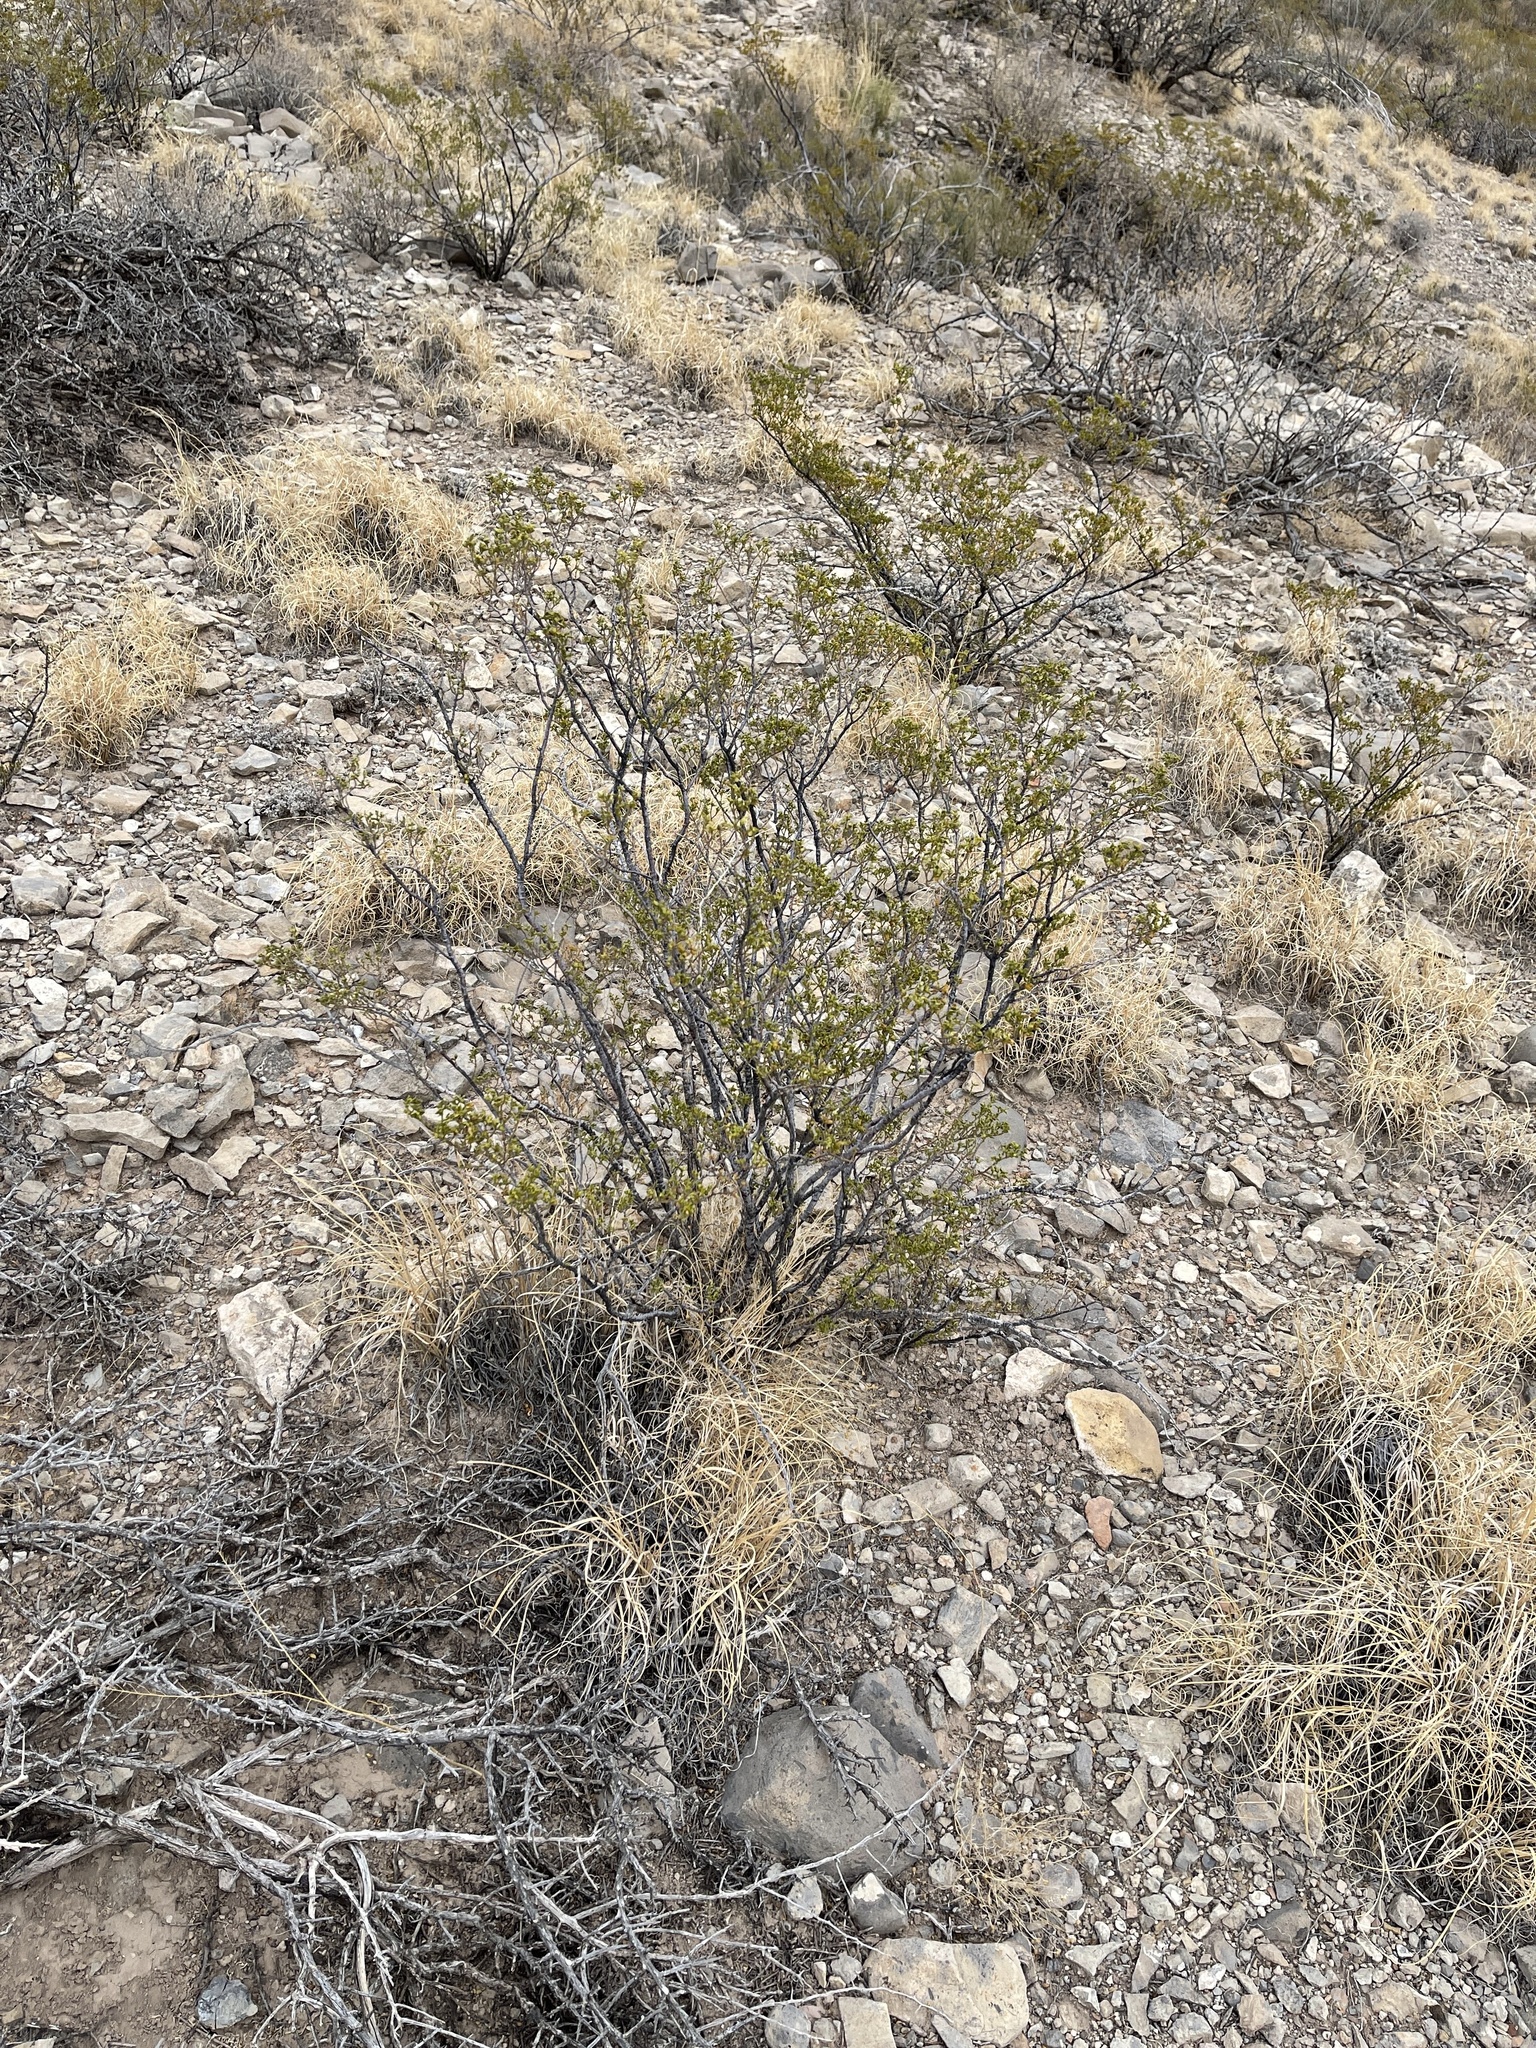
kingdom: Plantae
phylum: Tracheophyta
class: Magnoliopsida
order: Zygophyllales
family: Zygophyllaceae
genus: Larrea
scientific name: Larrea tridentata
